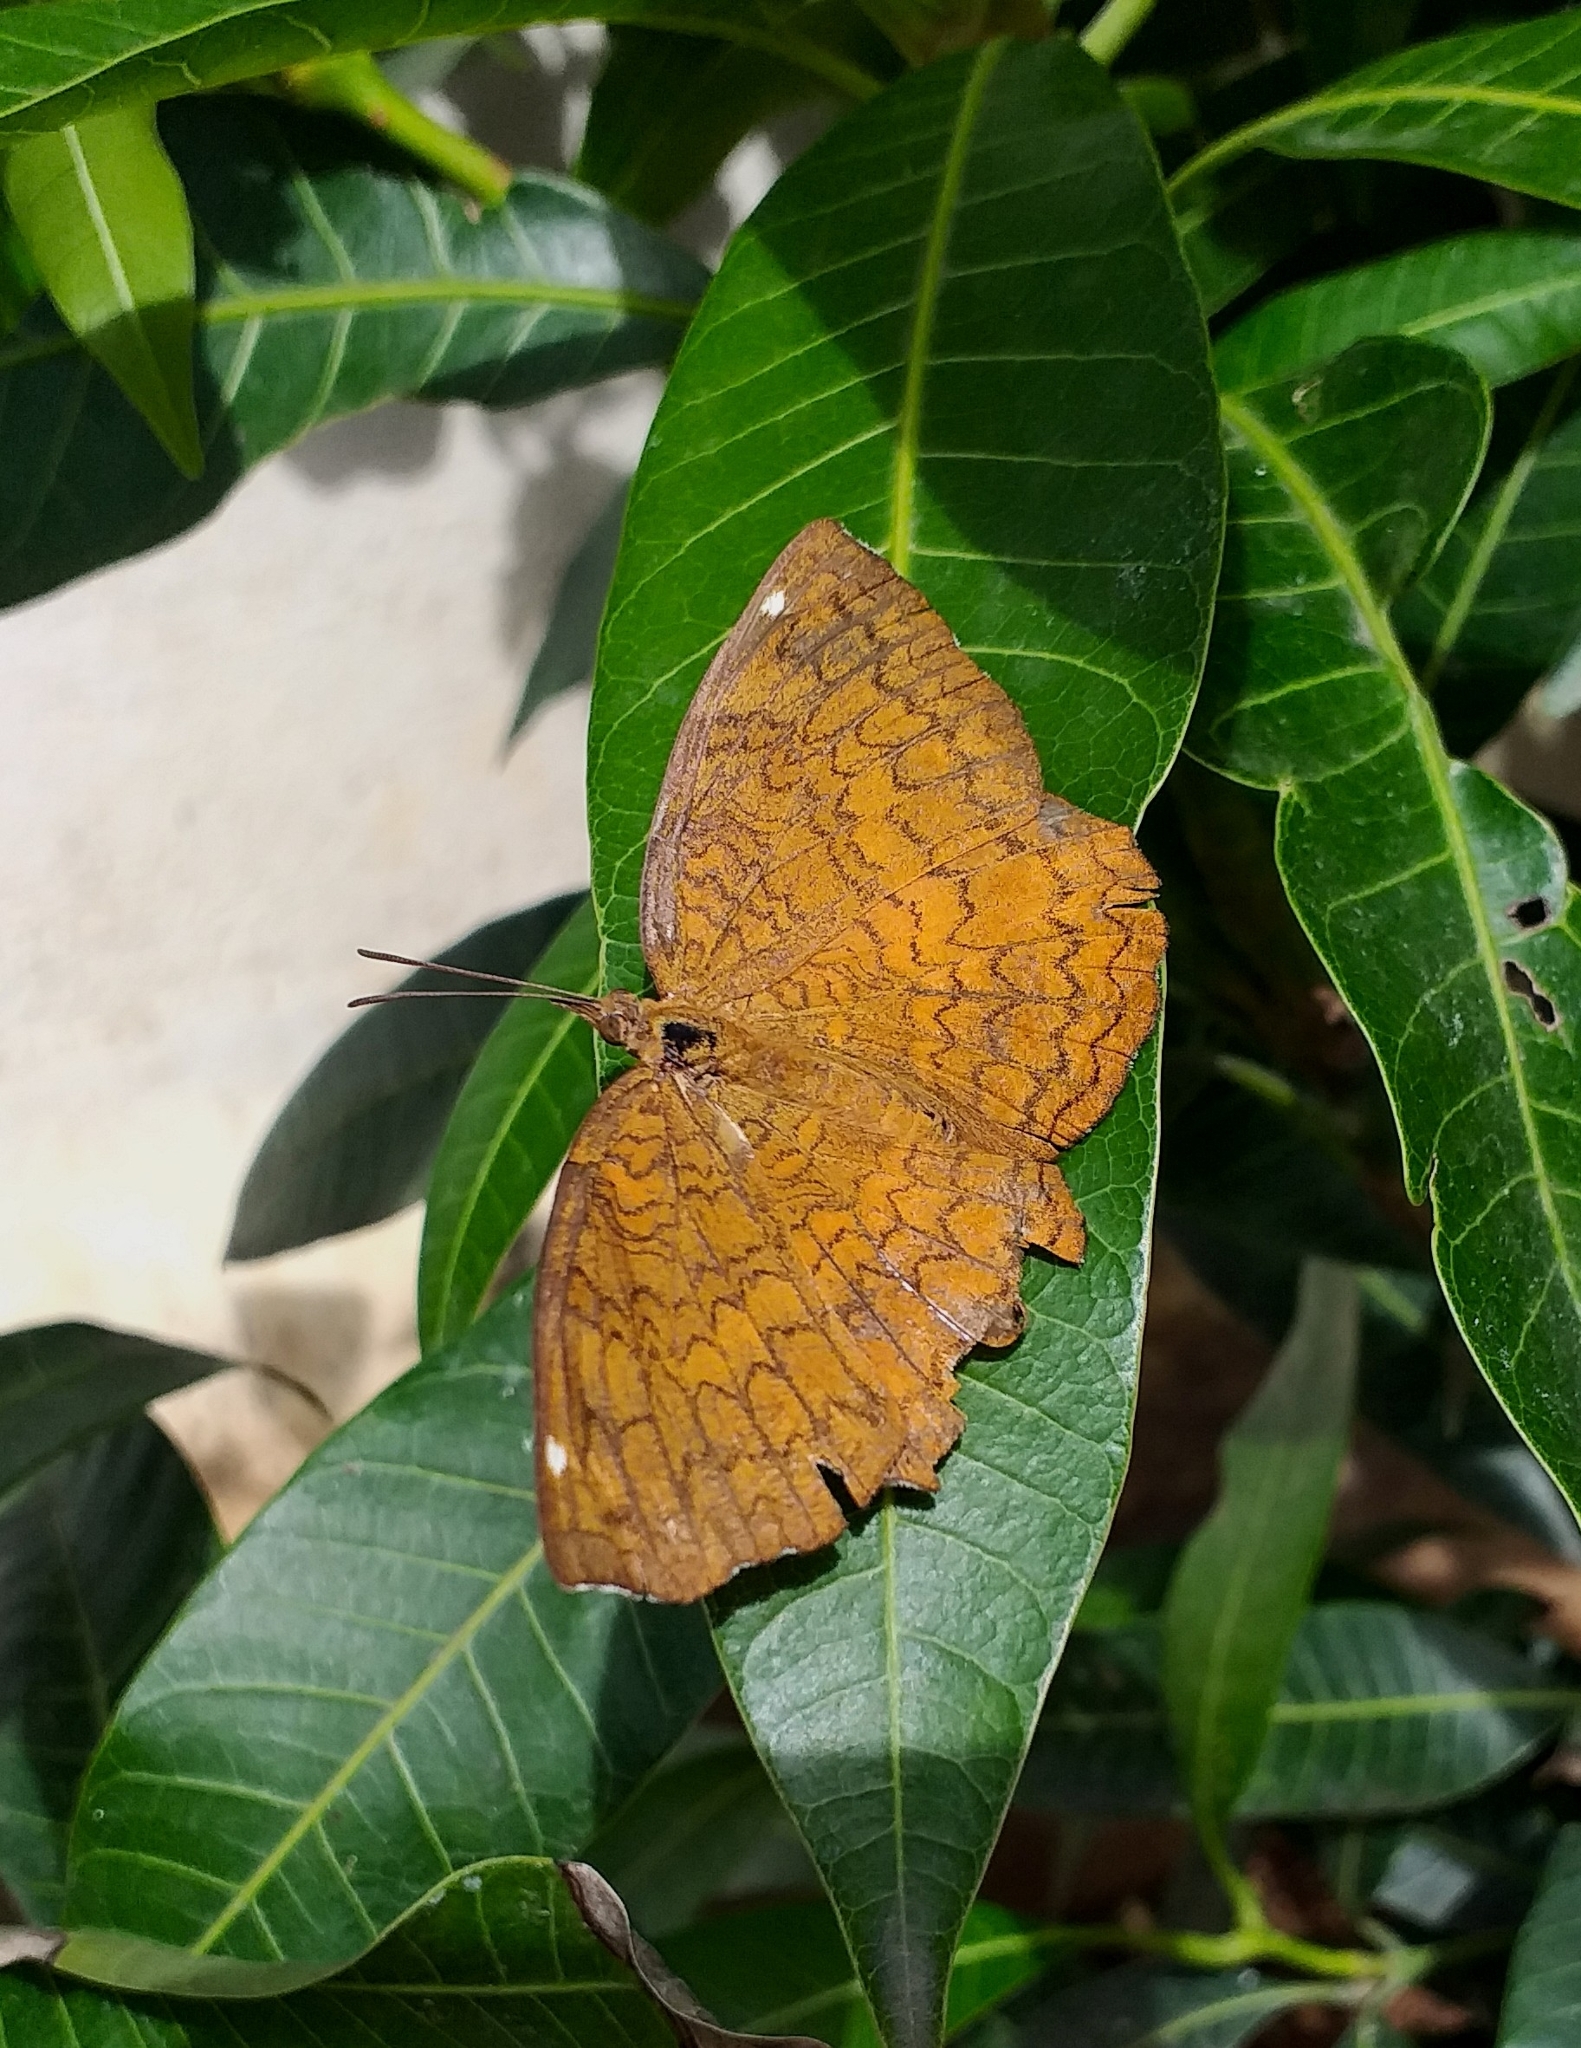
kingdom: Animalia
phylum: Arthropoda
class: Insecta
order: Lepidoptera
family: Nymphalidae
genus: Ariadne
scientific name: Ariadne merione
